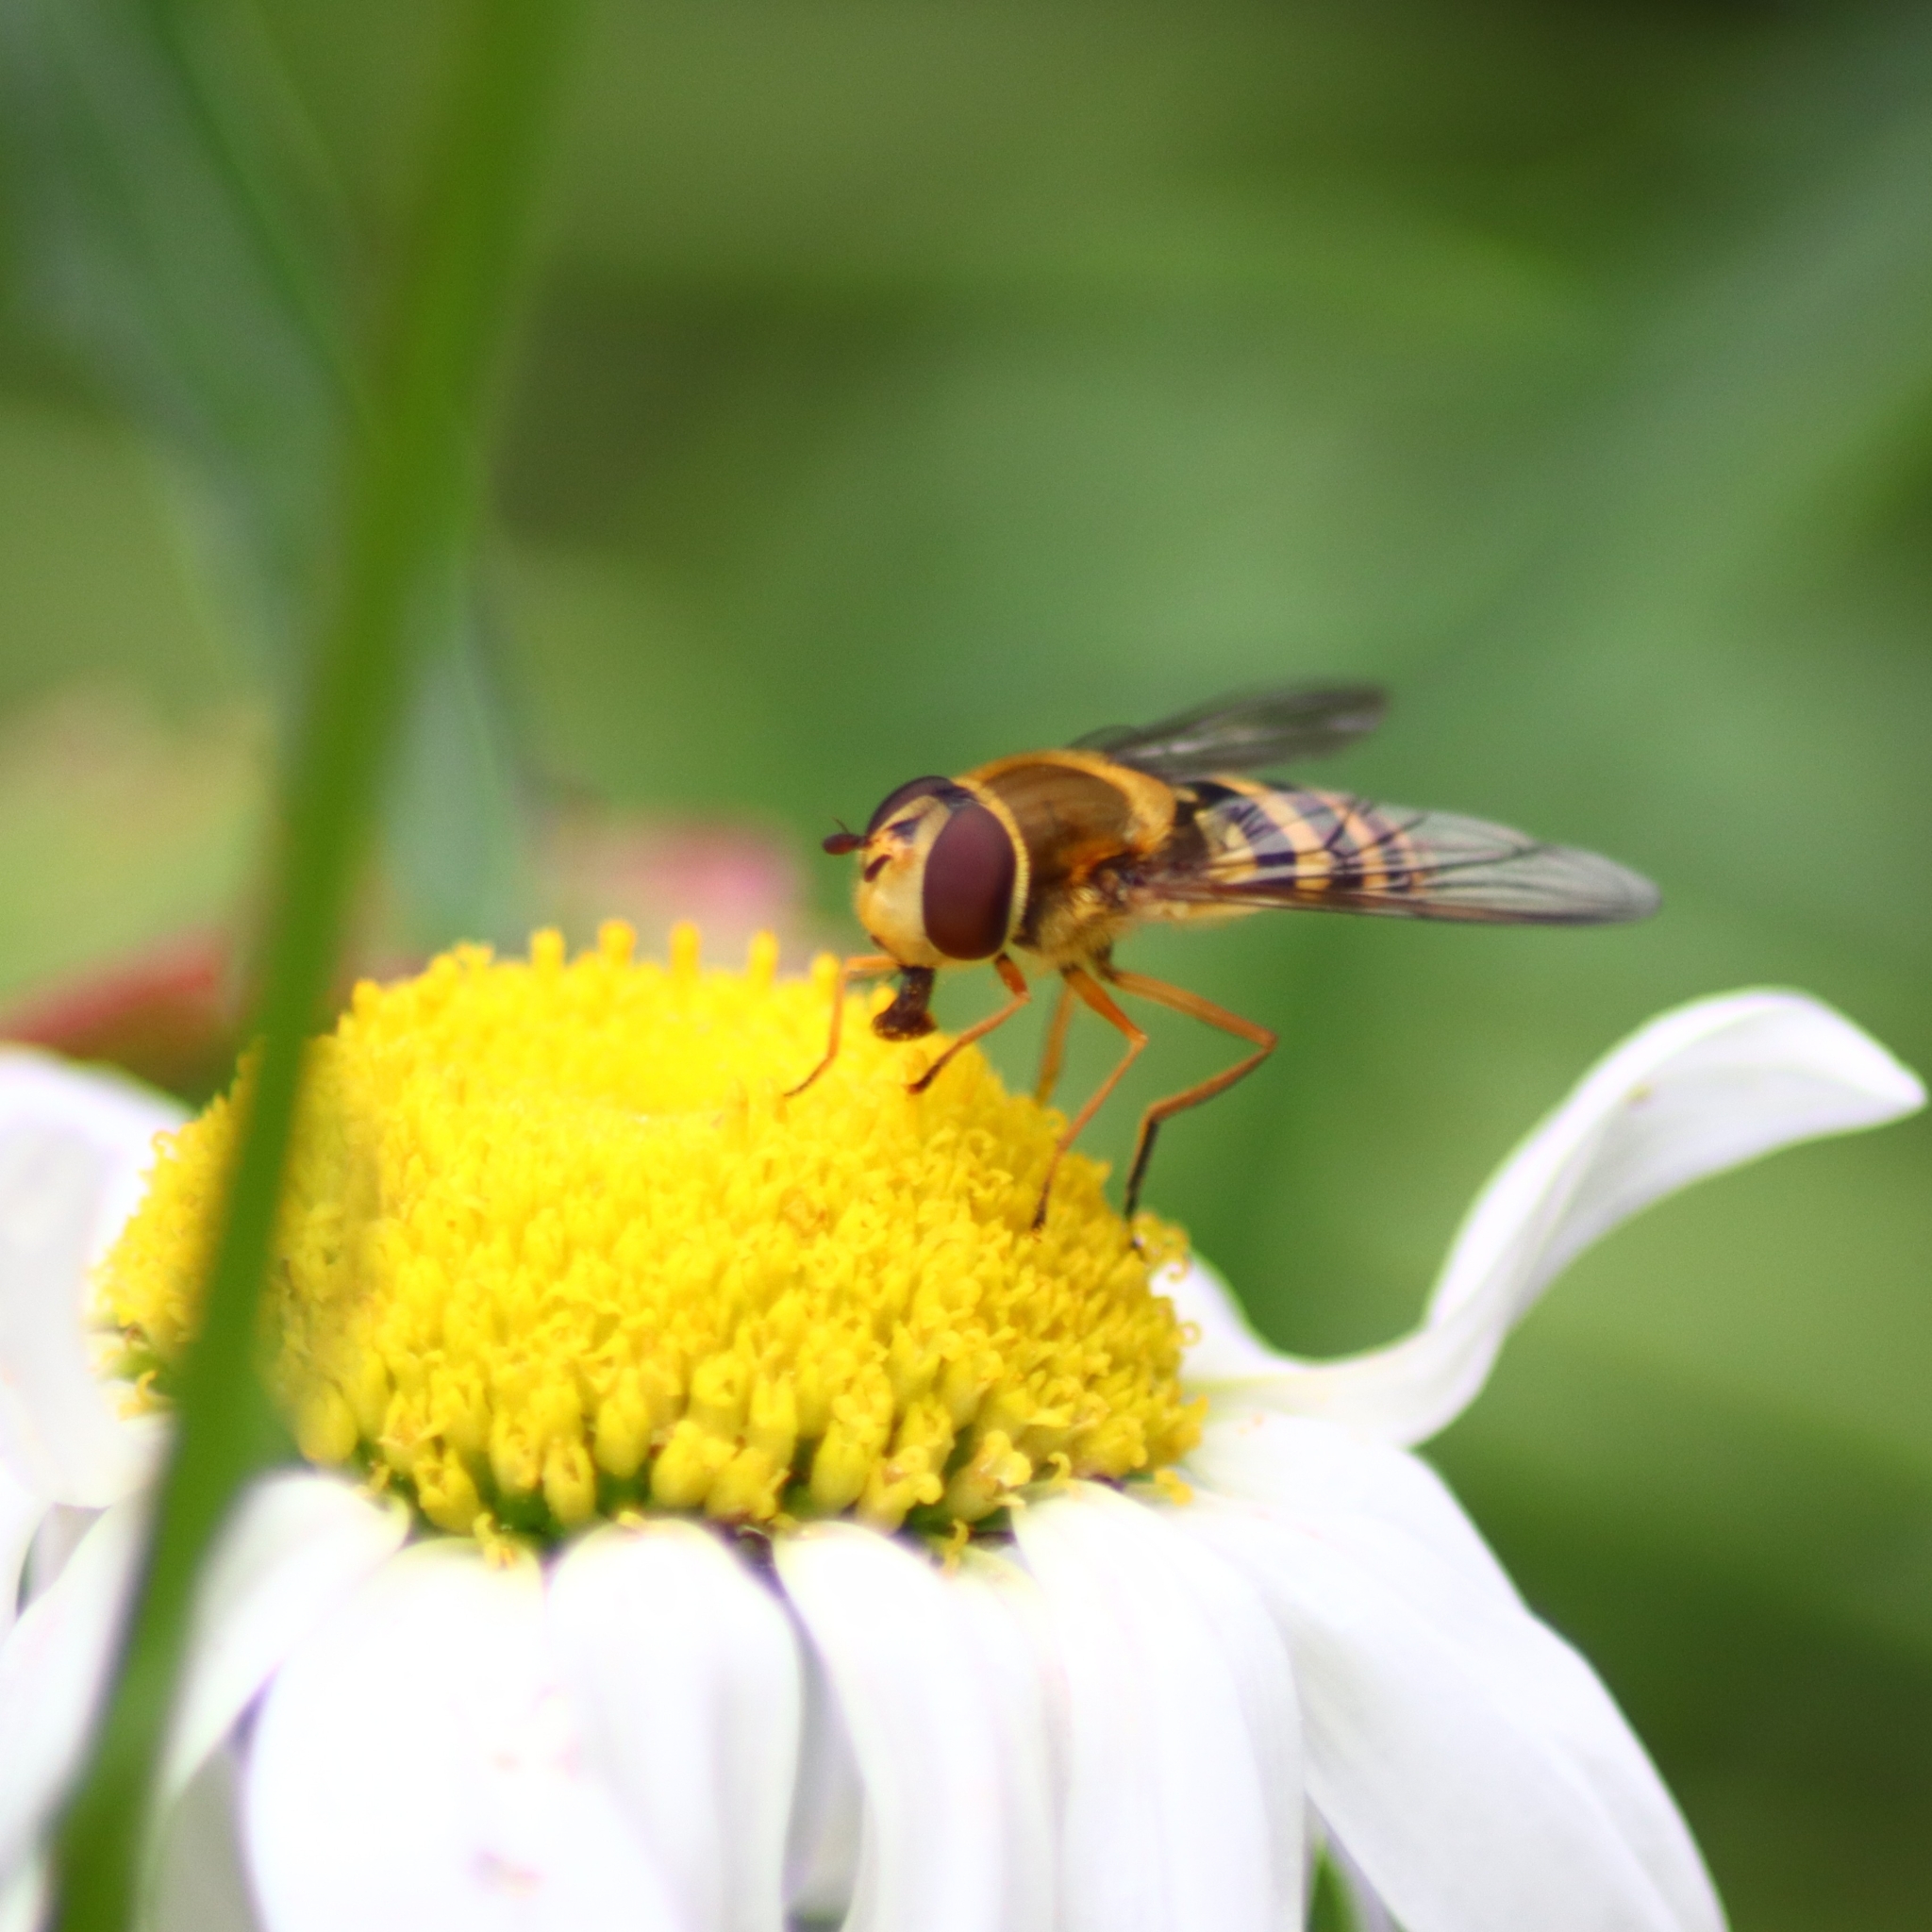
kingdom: Animalia
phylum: Arthropoda
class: Insecta
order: Diptera
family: Syrphidae
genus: Syrphus
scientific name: Syrphus ribesii
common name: Common flower fly
